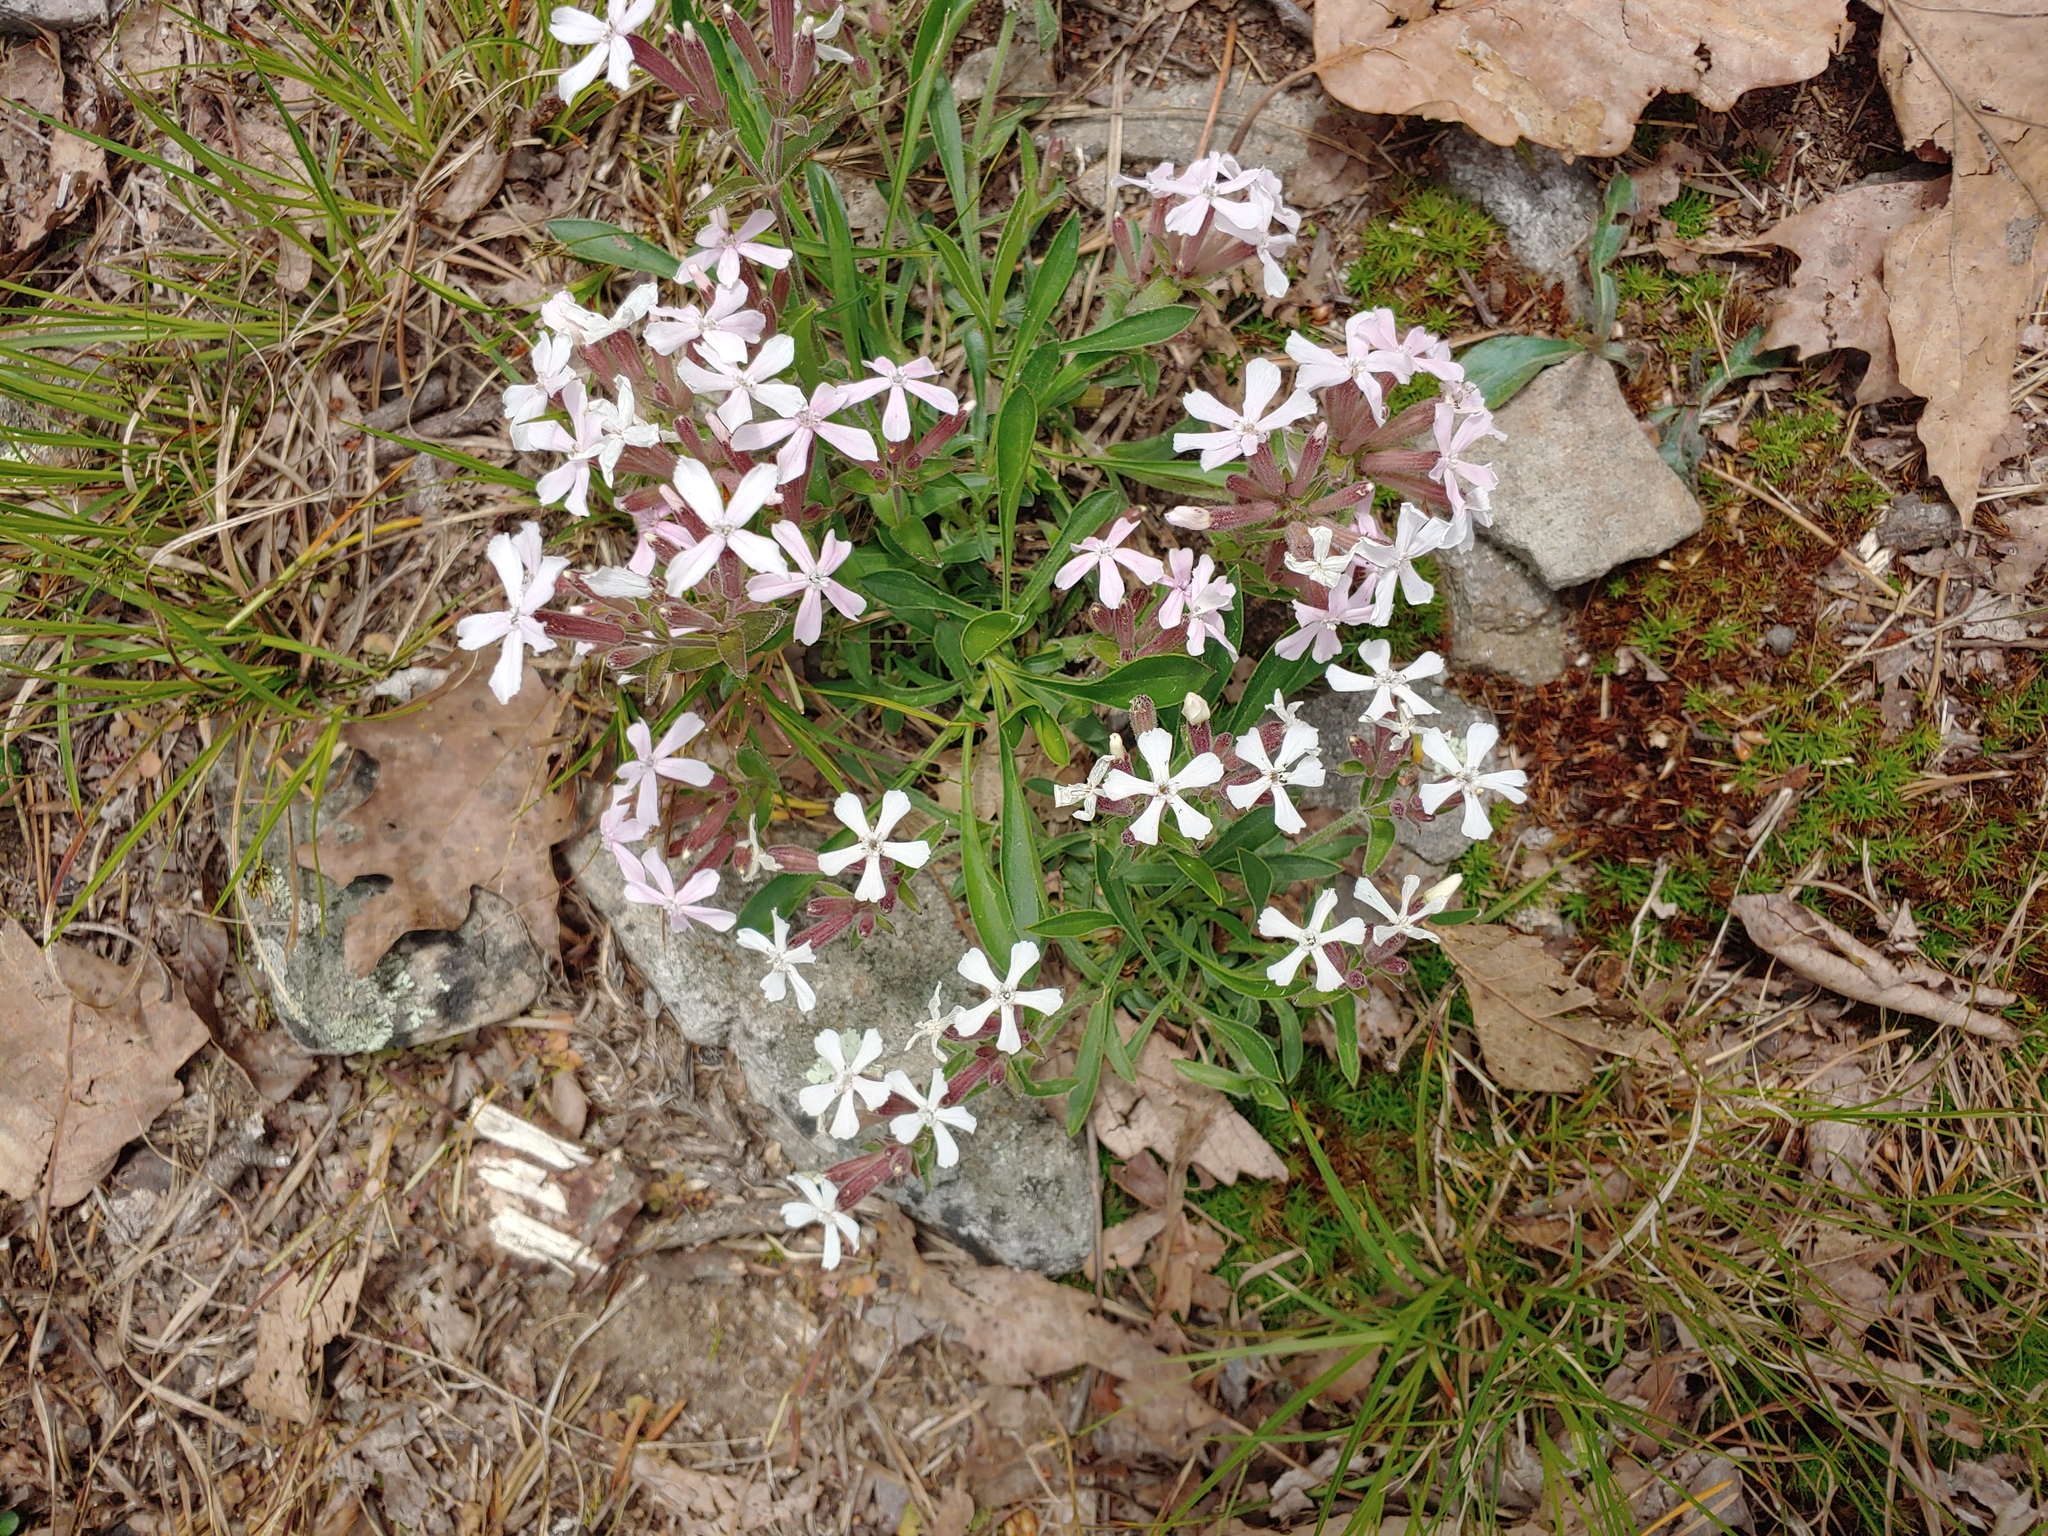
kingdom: Plantae
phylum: Tracheophyta
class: Magnoliopsida
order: Caryophyllales
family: Caryophyllaceae
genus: Silene
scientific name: Silene caroliniana
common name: Sticky catchfly
